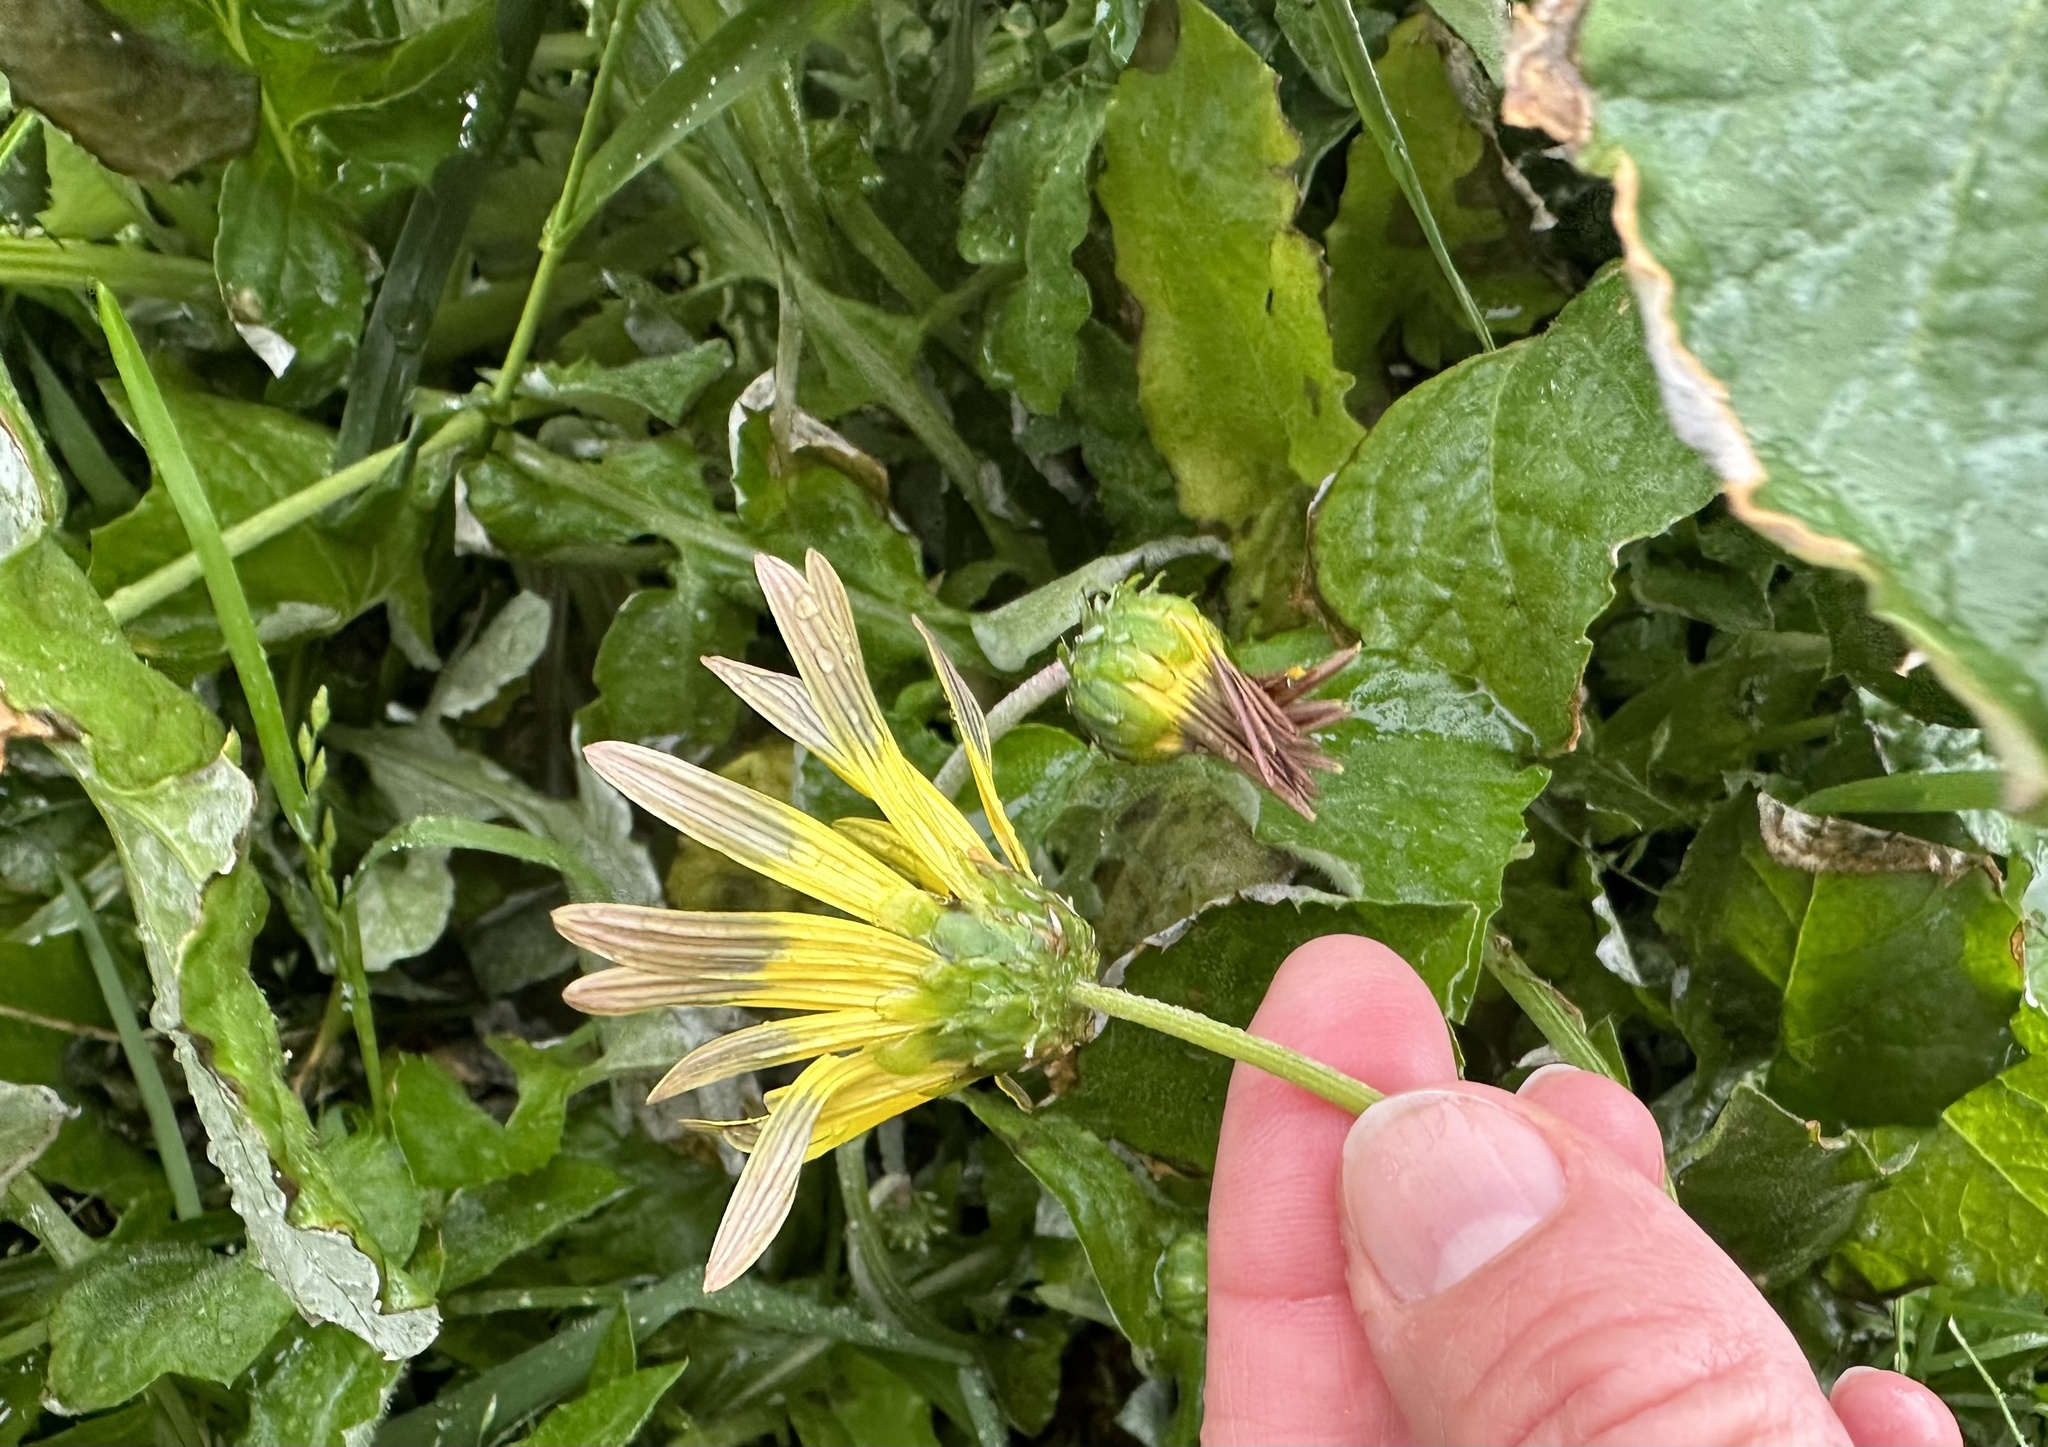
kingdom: Plantae
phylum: Tracheophyta
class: Magnoliopsida
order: Asterales
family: Asteraceae
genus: Arctotheca
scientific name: Arctotheca calendula
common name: Capeweed
